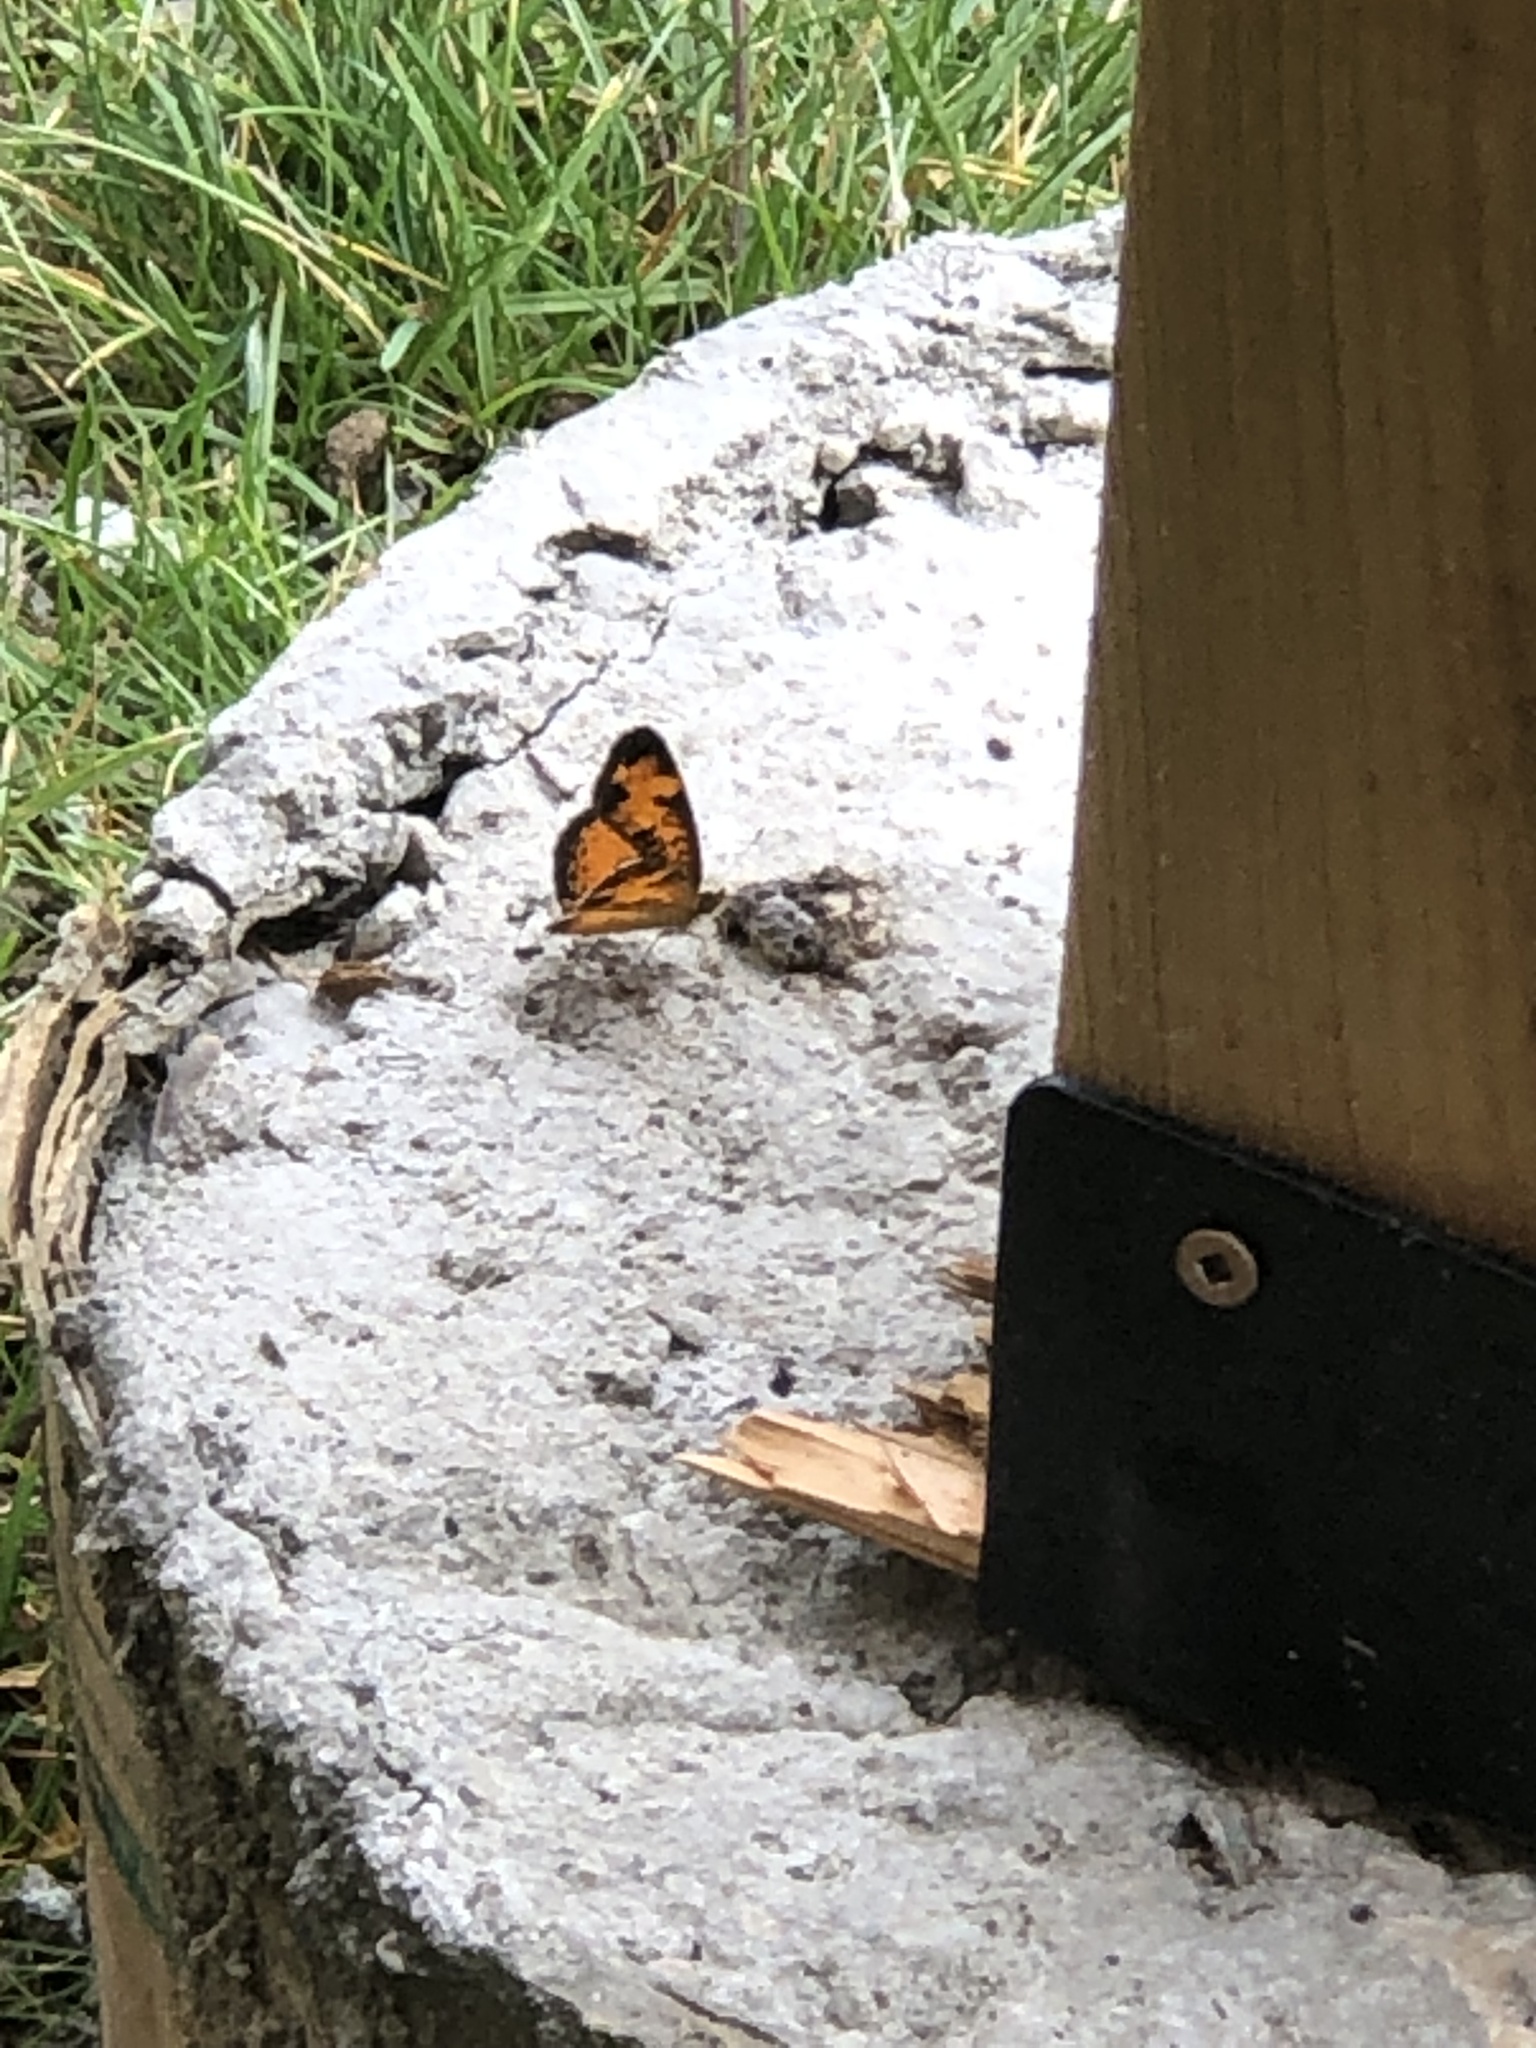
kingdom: Animalia
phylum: Arthropoda
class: Insecta
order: Lepidoptera
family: Nymphalidae
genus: Phyciodes
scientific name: Phyciodes tharos
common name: Pearl crescent
